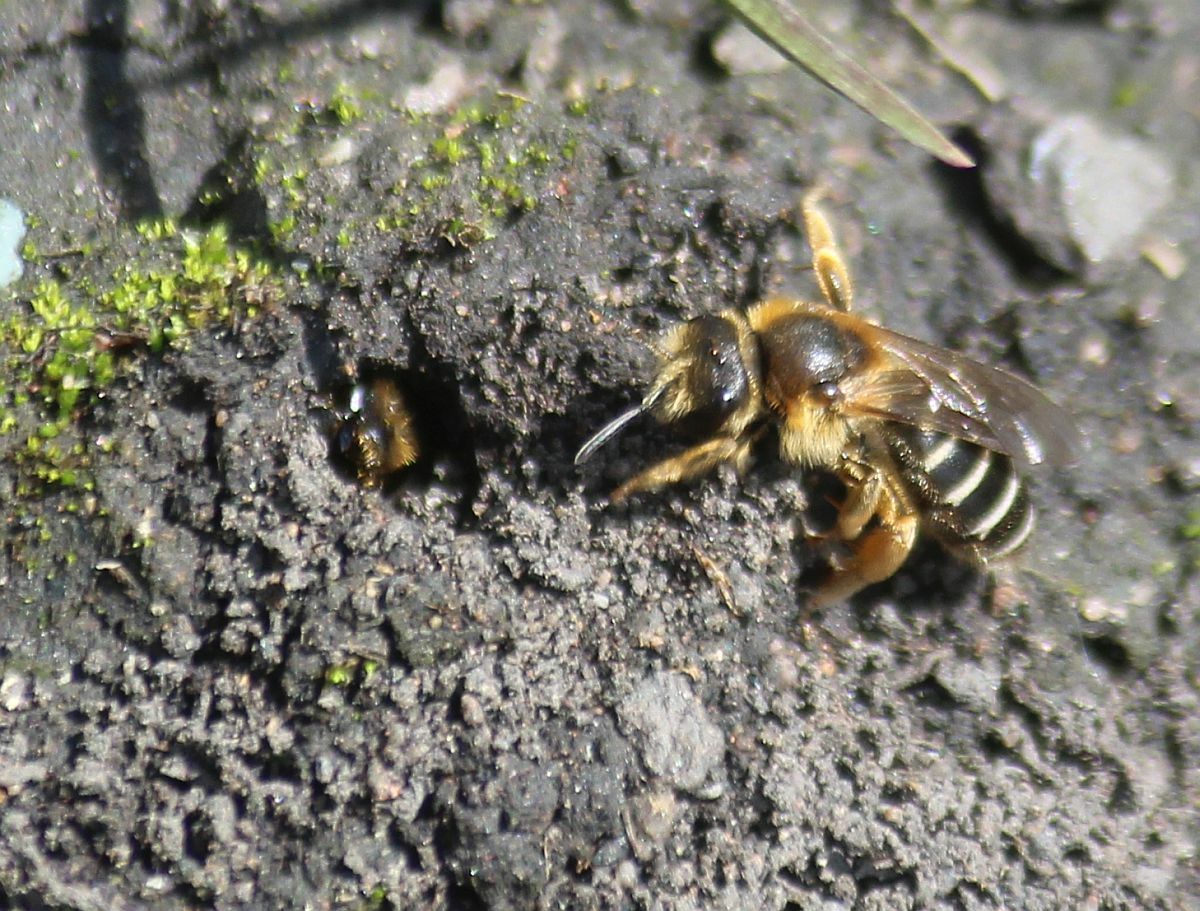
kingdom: Animalia
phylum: Arthropoda
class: Insecta
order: Hymenoptera
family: Halictidae
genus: Halictus
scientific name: Halictus rubicundus
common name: Orange-legged furrow bee
